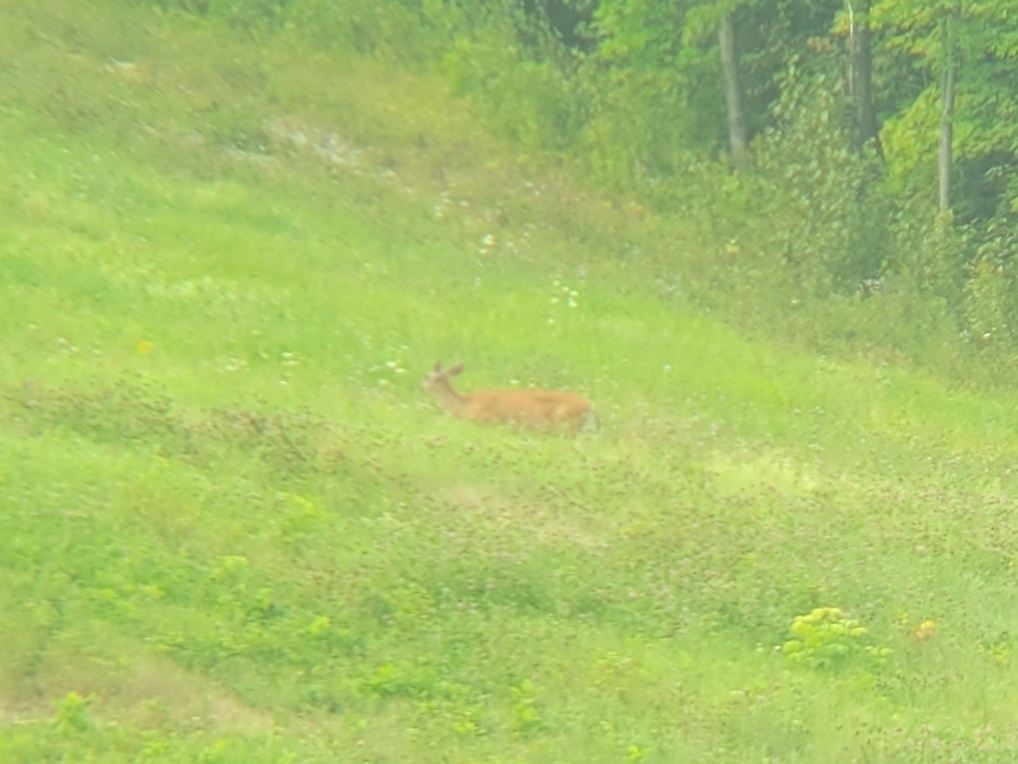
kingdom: Animalia
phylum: Chordata
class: Mammalia
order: Artiodactyla
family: Cervidae
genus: Odocoileus
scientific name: Odocoileus virginianus
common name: White-tailed deer
